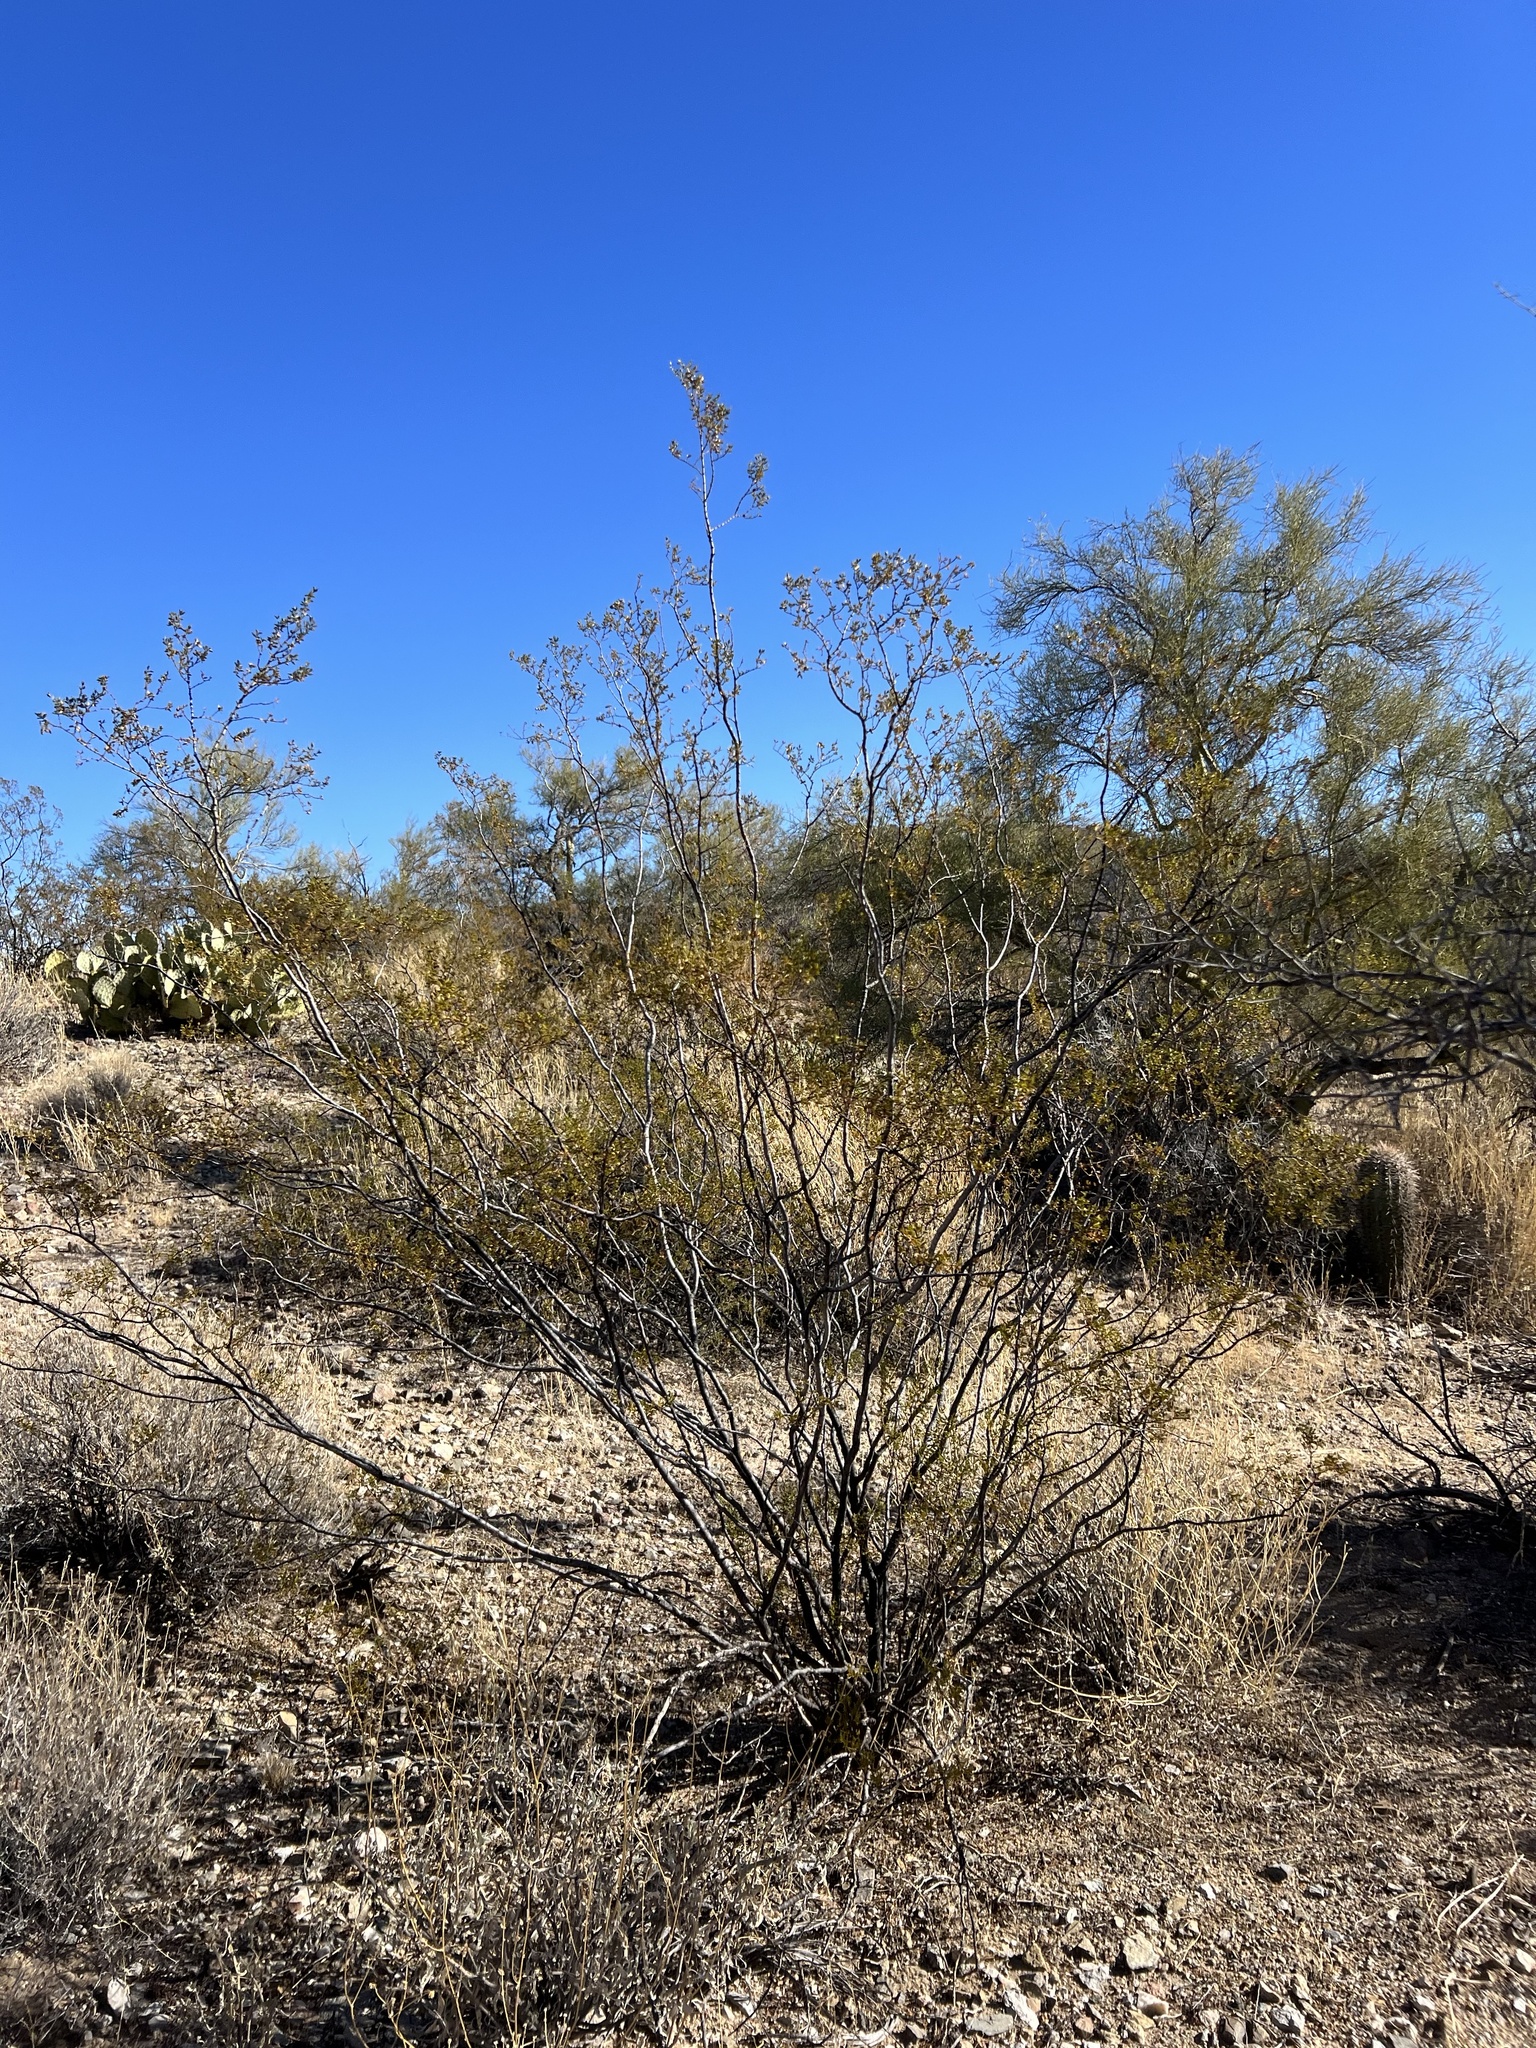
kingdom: Plantae
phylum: Tracheophyta
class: Magnoliopsida
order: Zygophyllales
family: Zygophyllaceae
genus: Larrea
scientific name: Larrea tridentata
